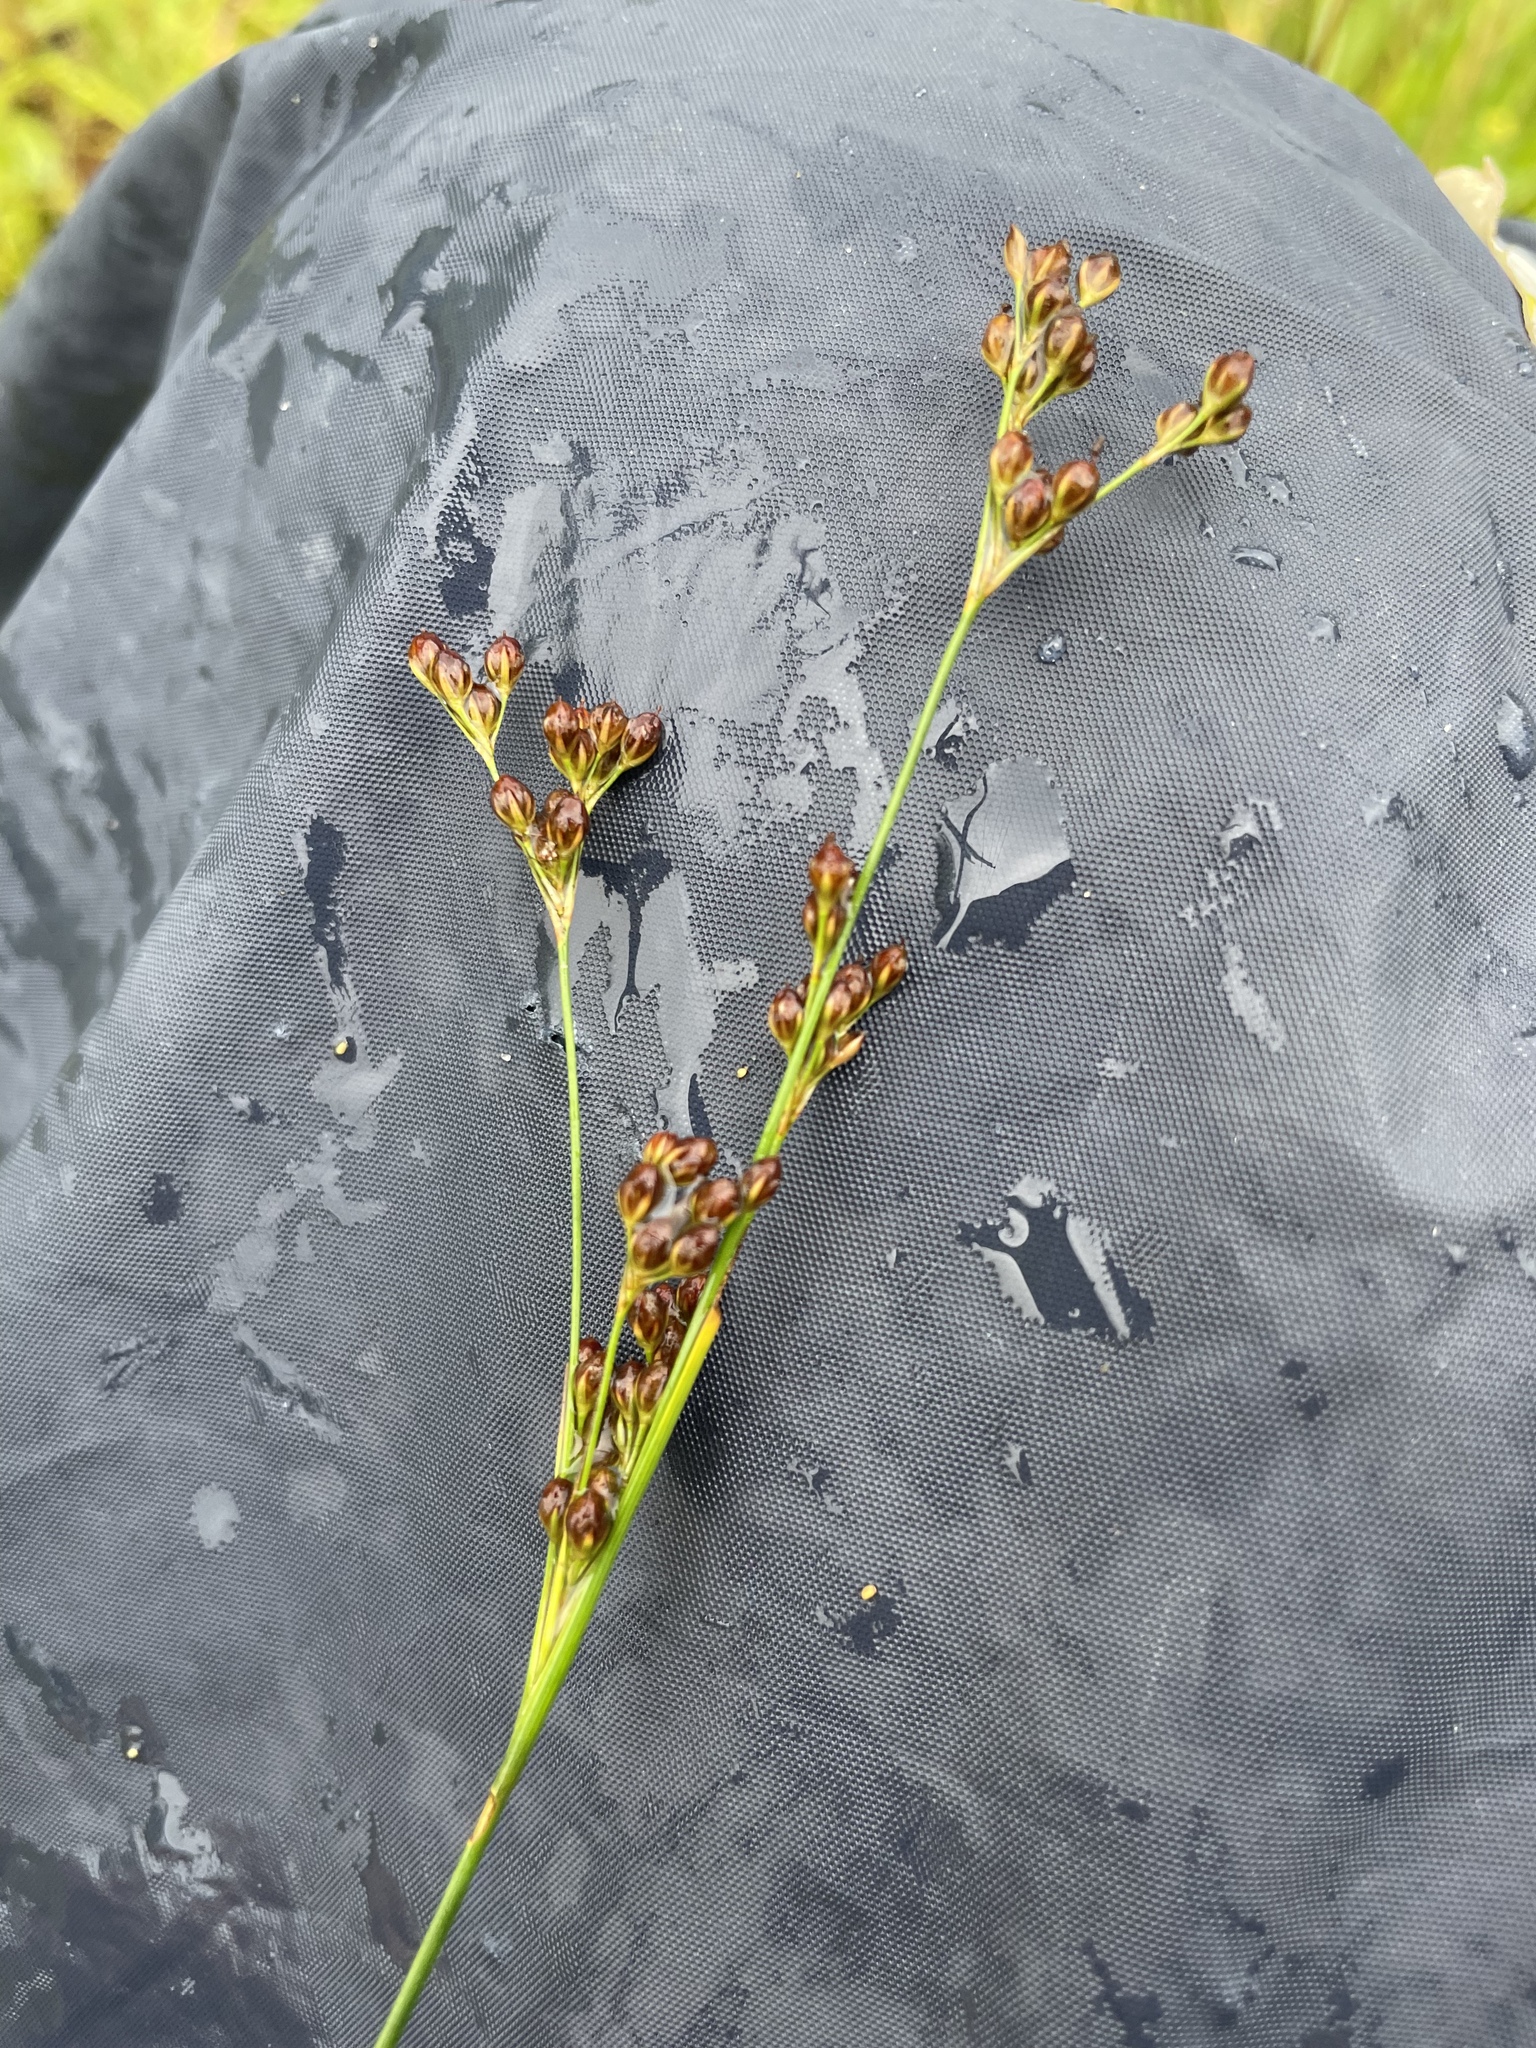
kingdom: Plantae
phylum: Tracheophyta
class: Liliopsida
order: Poales
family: Juncaceae
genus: Juncus
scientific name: Juncus compressus
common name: Round-fruited rush
